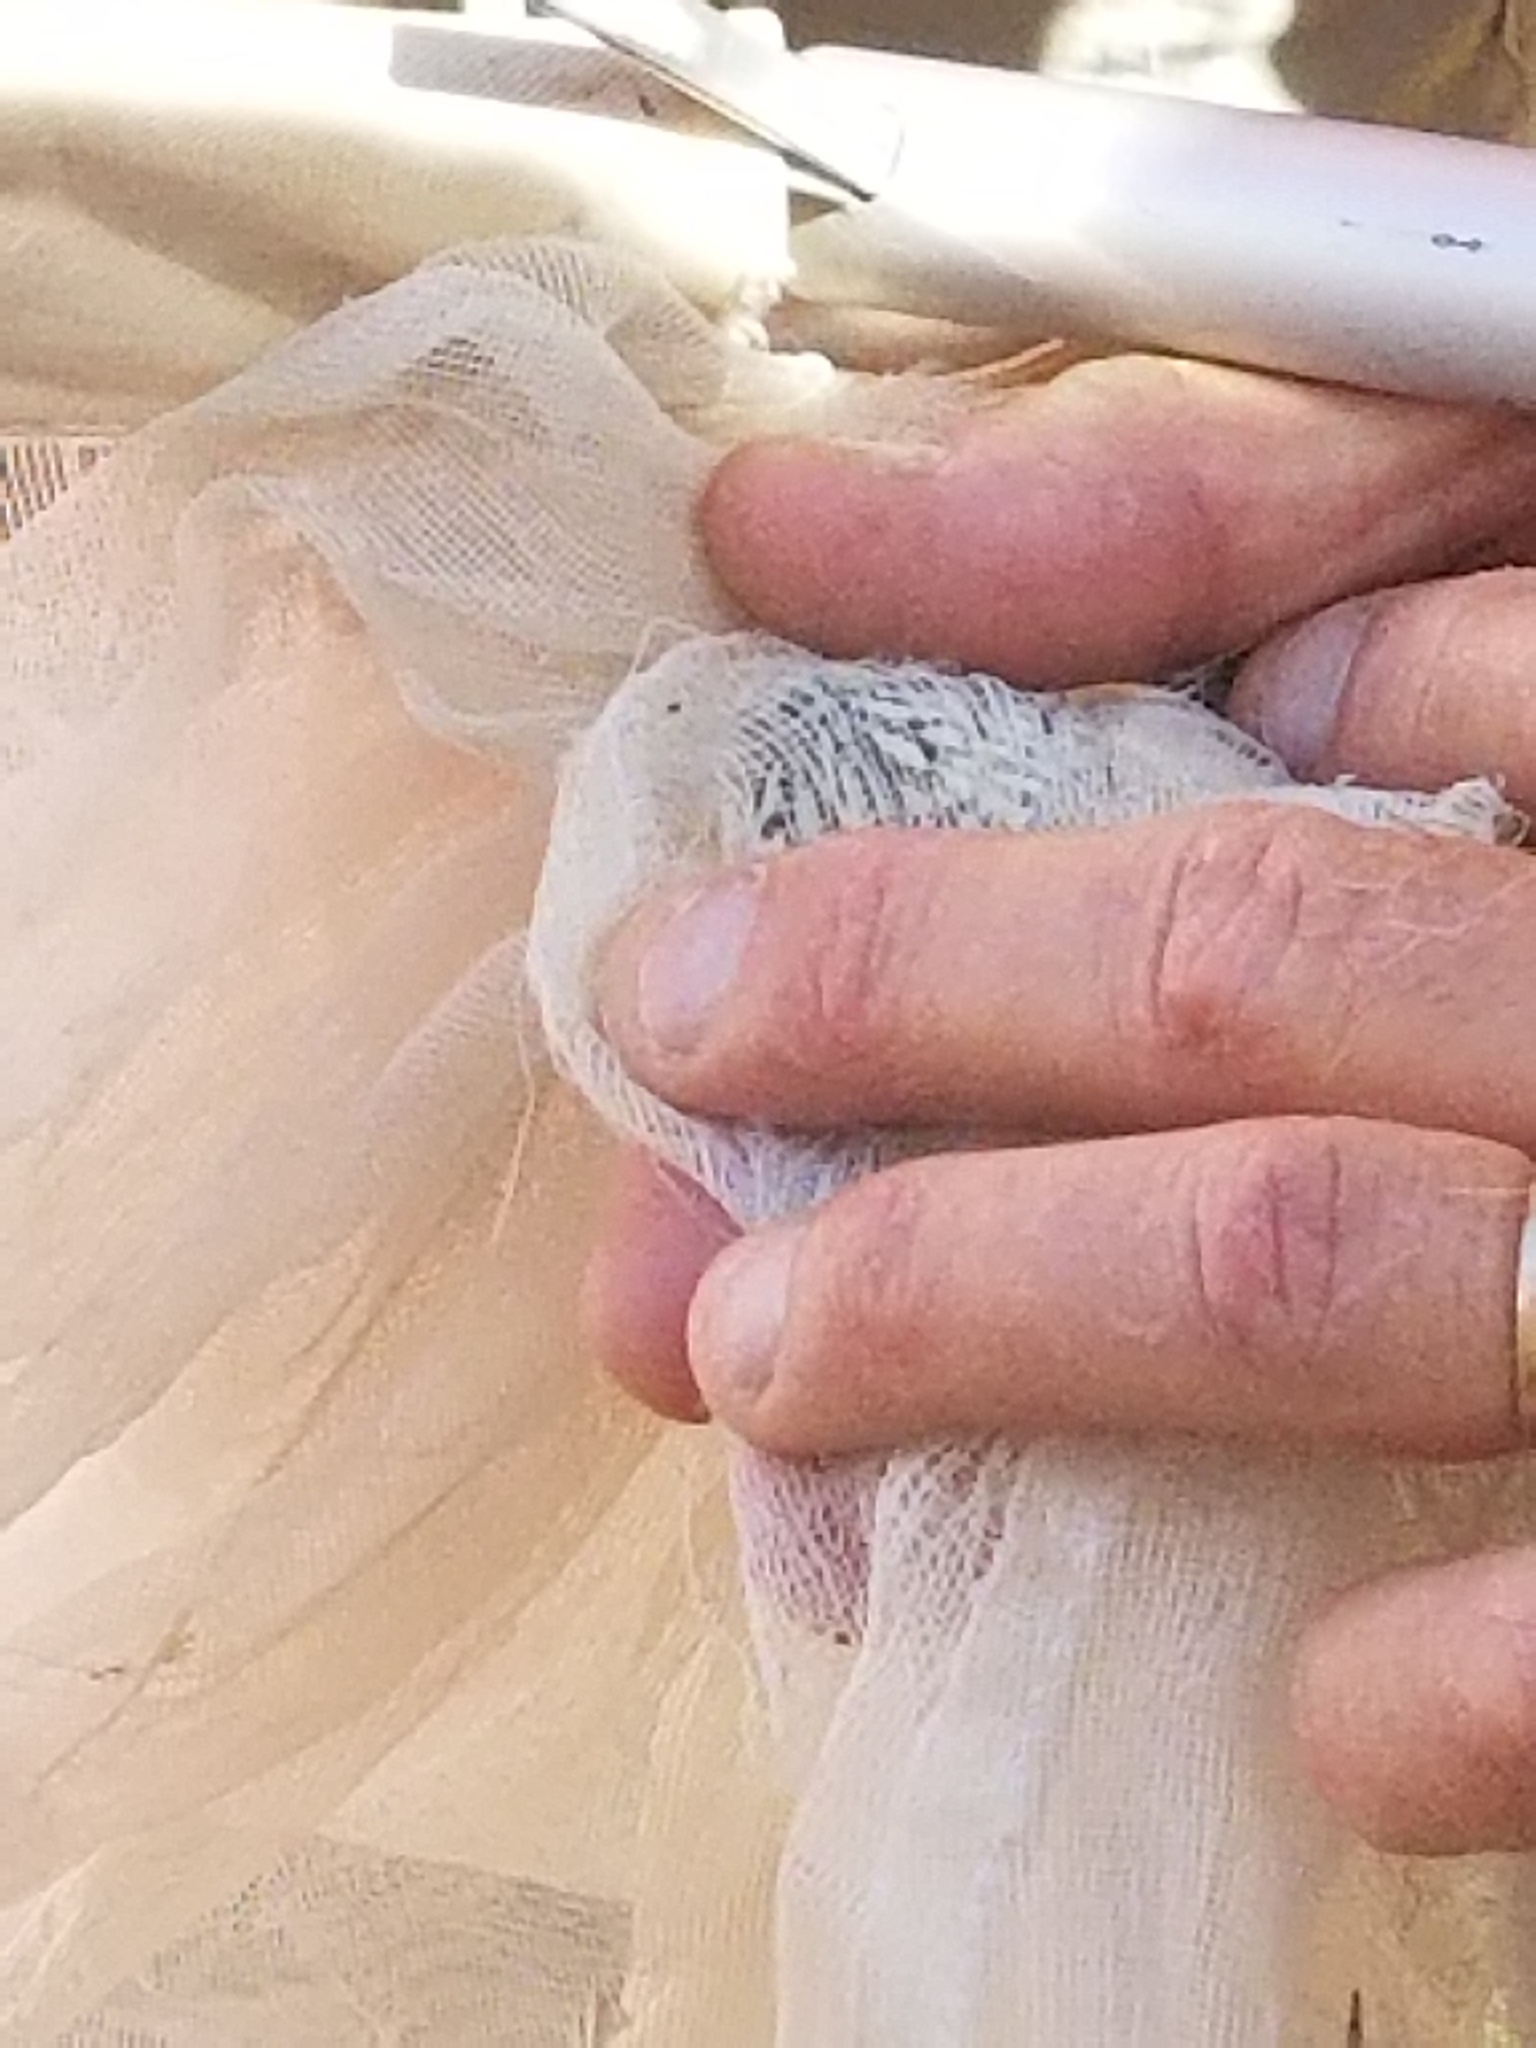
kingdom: Animalia
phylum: Arthropoda
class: Insecta
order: Lepidoptera
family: Pieridae
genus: Pontia
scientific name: Pontia sisymbrii
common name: California white
